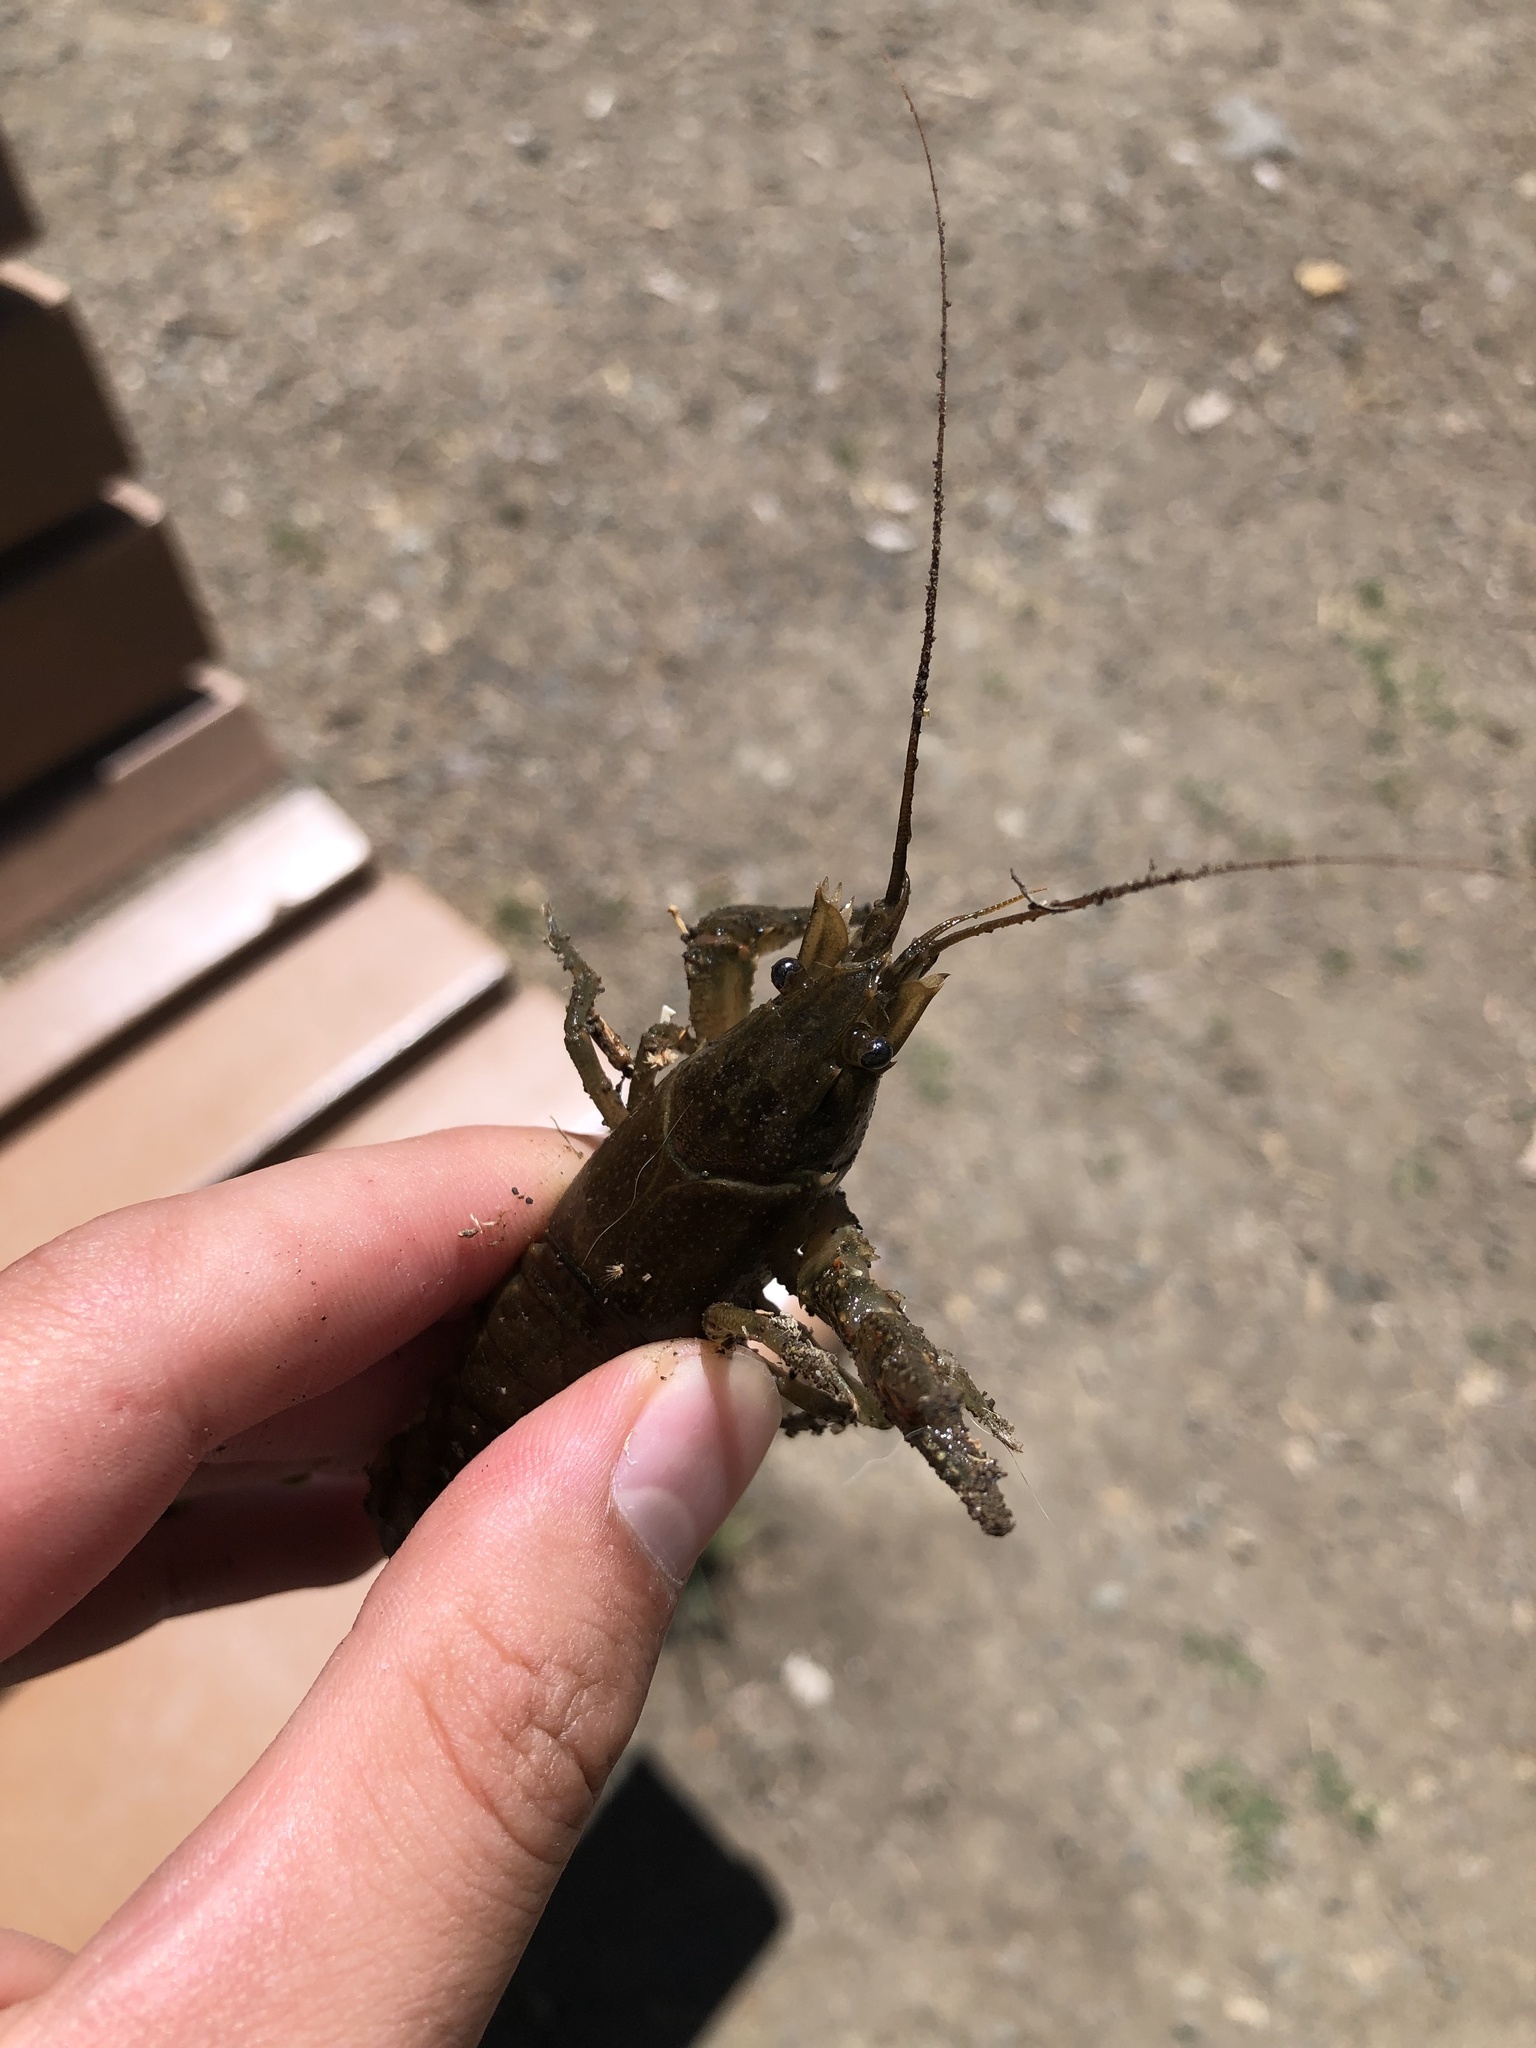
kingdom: Animalia
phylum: Arthropoda
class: Malacostraca
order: Decapoda
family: Cambaridae
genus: Faxonius
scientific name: Faxonius virilis
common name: Virile crayfish
